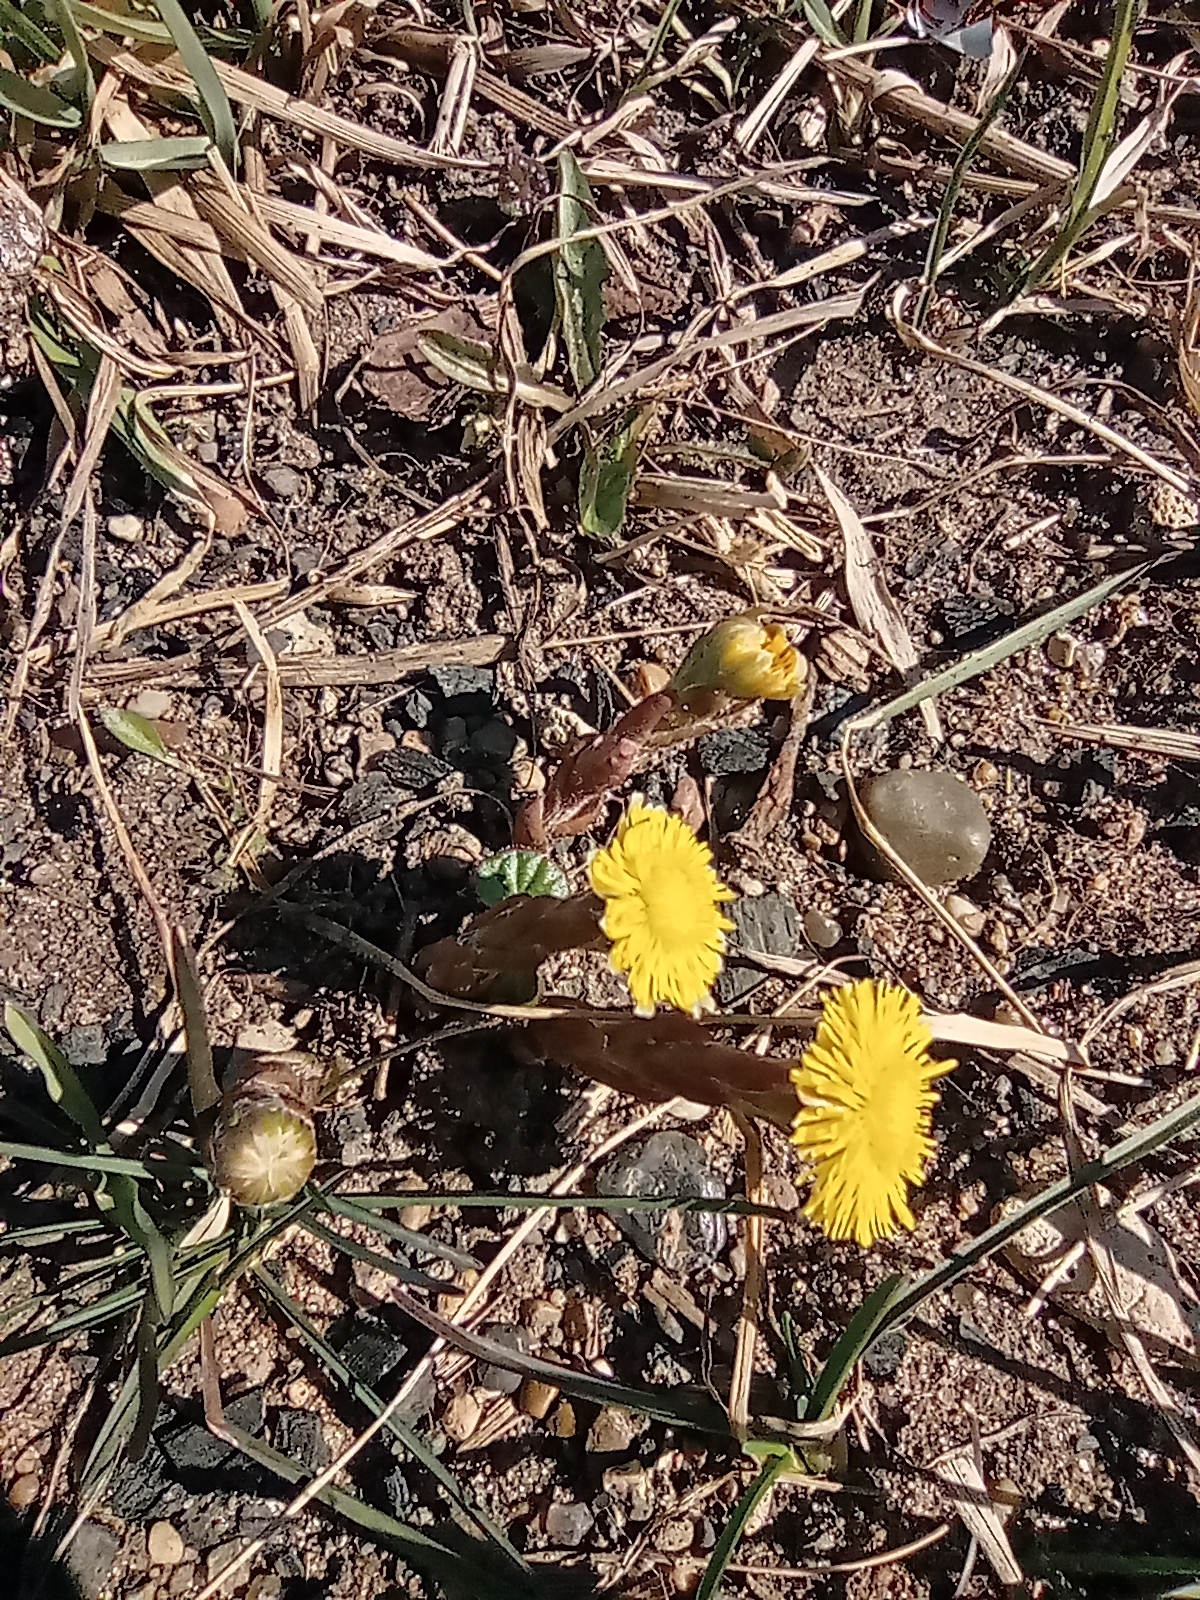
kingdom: Plantae
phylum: Tracheophyta
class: Magnoliopsida
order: Asterales
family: Asteraceae
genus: Tussilago
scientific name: Tussilago farfara
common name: Coltsfoot
